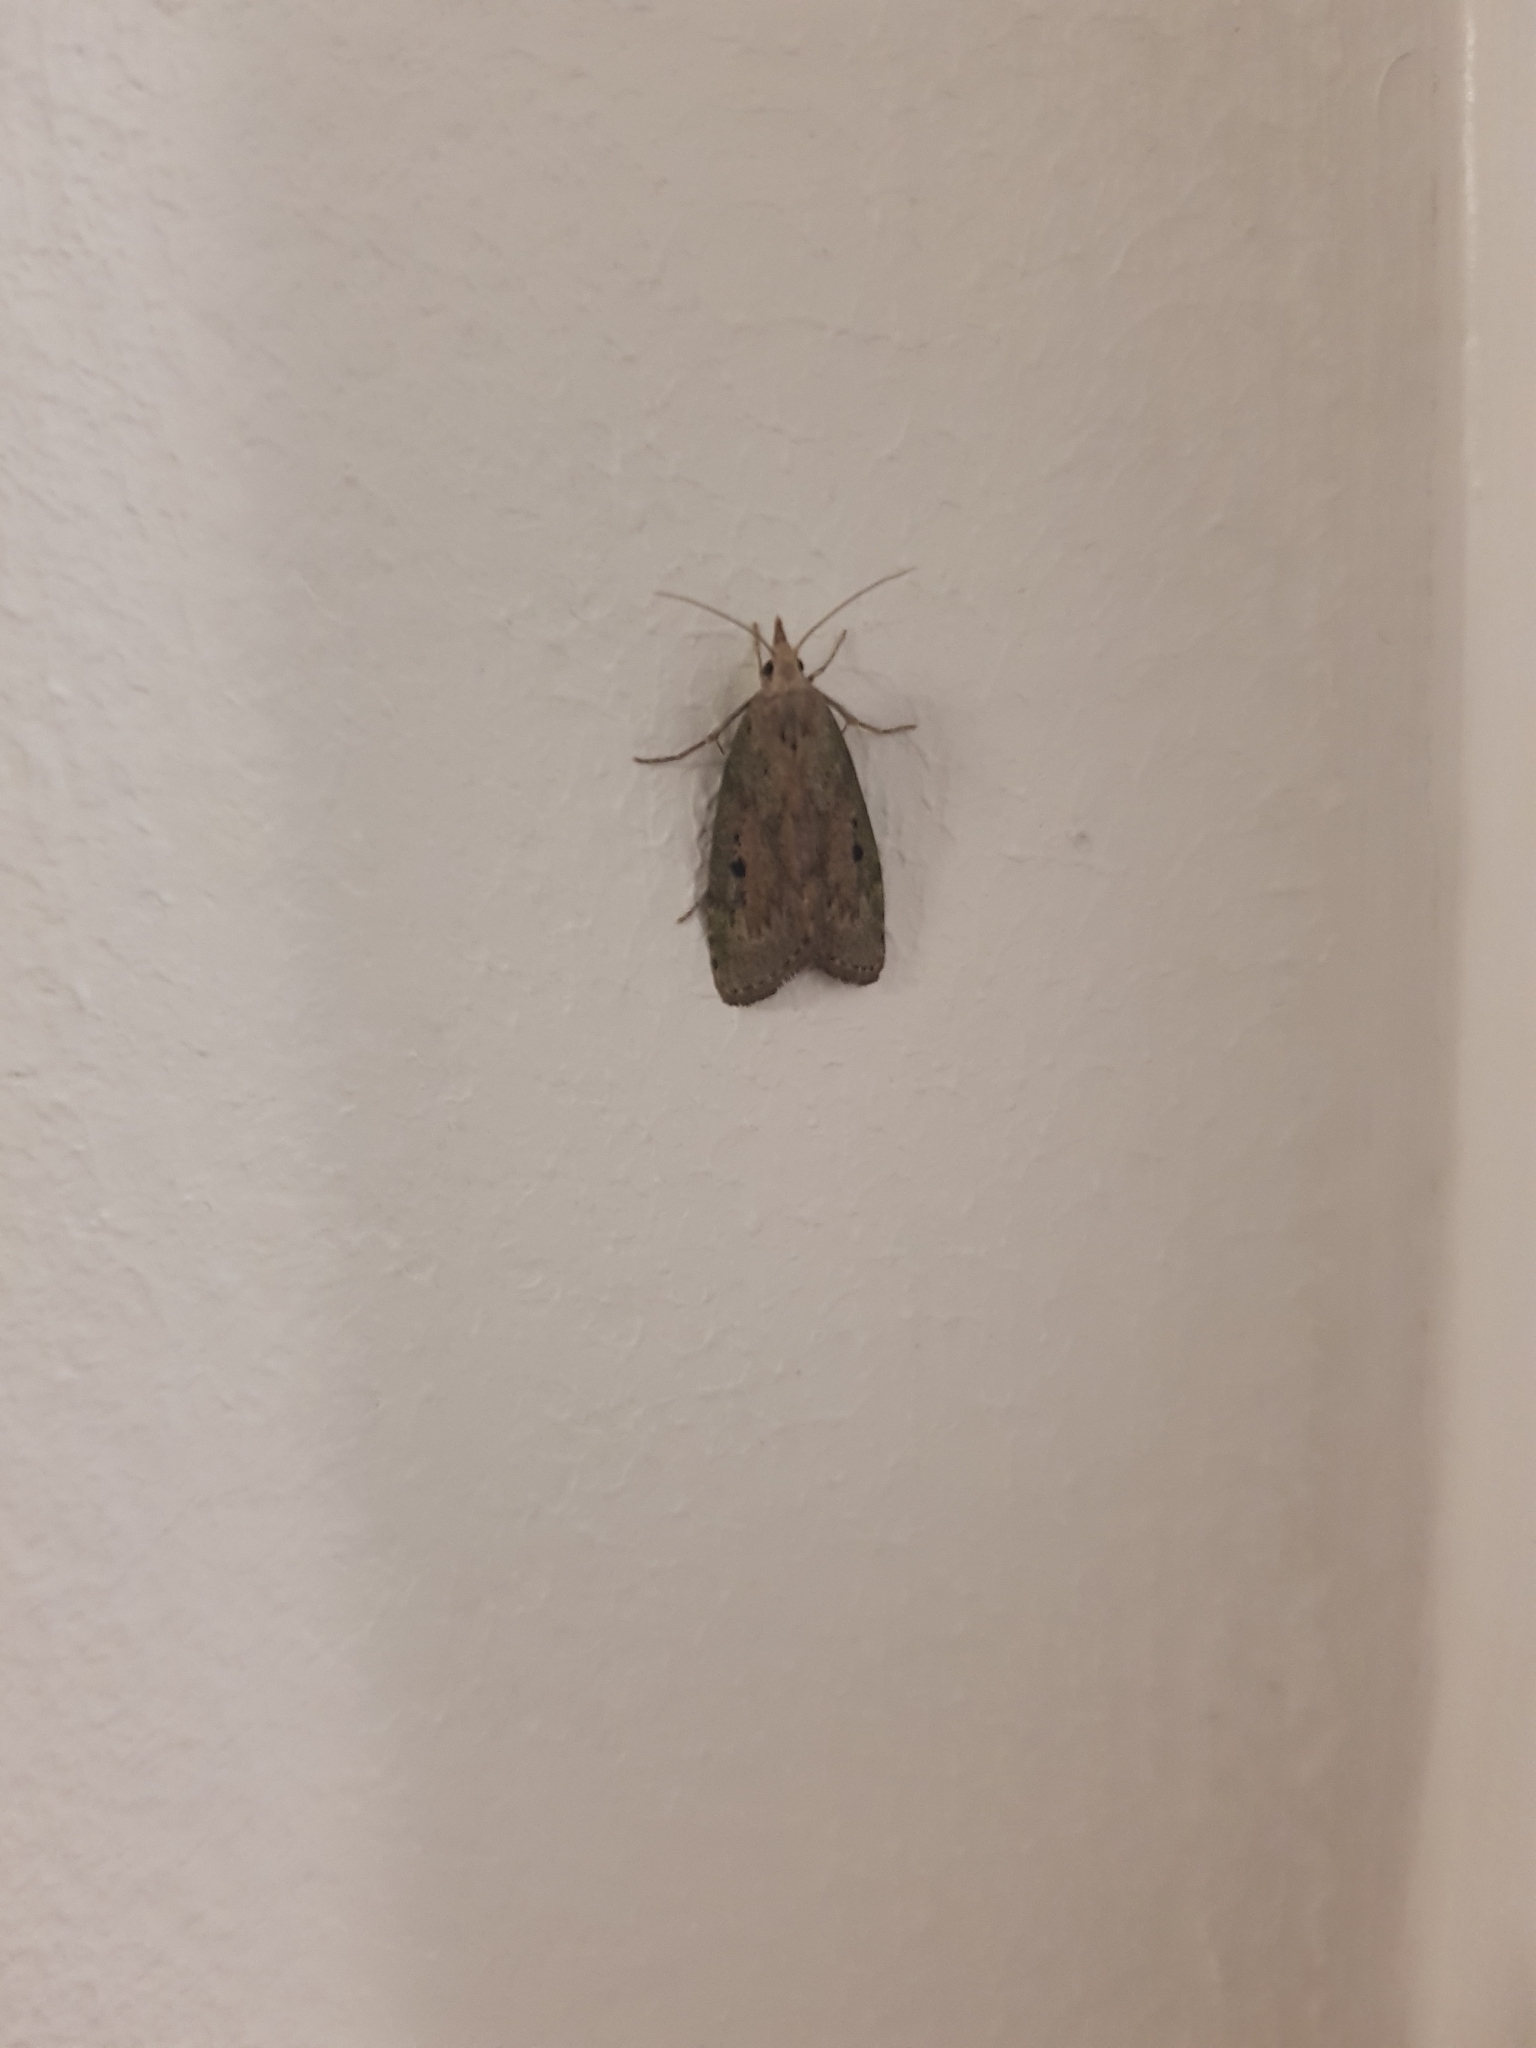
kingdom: Animalia
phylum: Arthropoda
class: Insecta
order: Lepidoptera
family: Pyralidae
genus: Aphomia
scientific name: Aphomia sociella
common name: Bee moth
